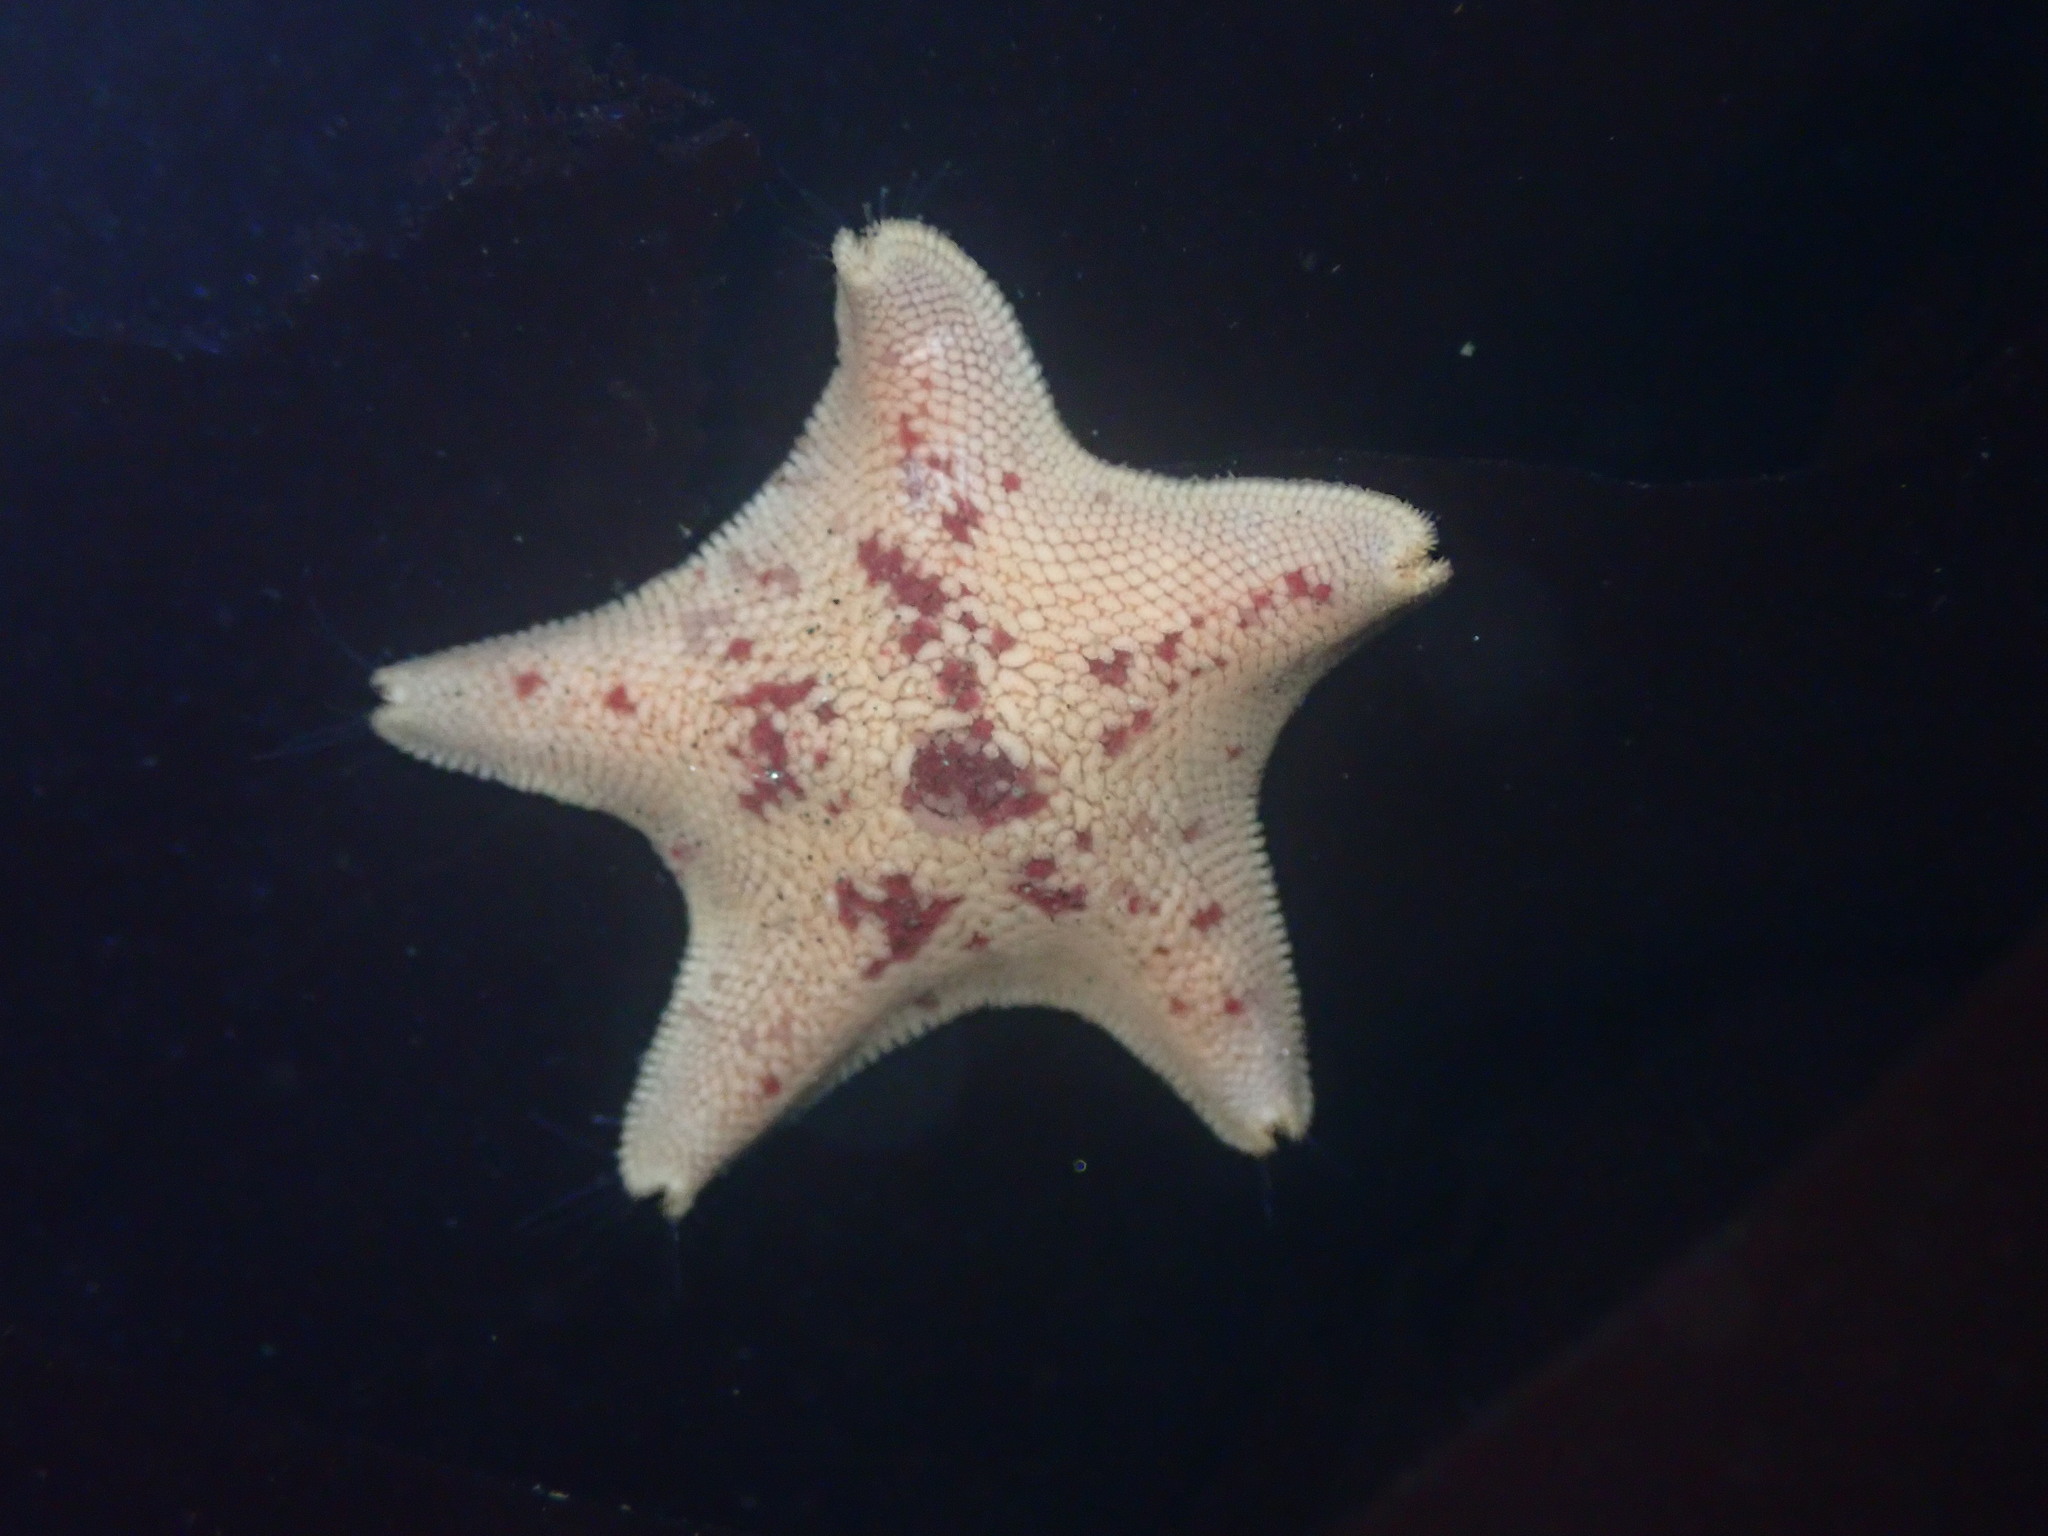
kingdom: Animalia
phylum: Echinodermata
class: Asteroidea
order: Valvatida
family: Asterinidae
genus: Patiria
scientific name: Patiria miniata
